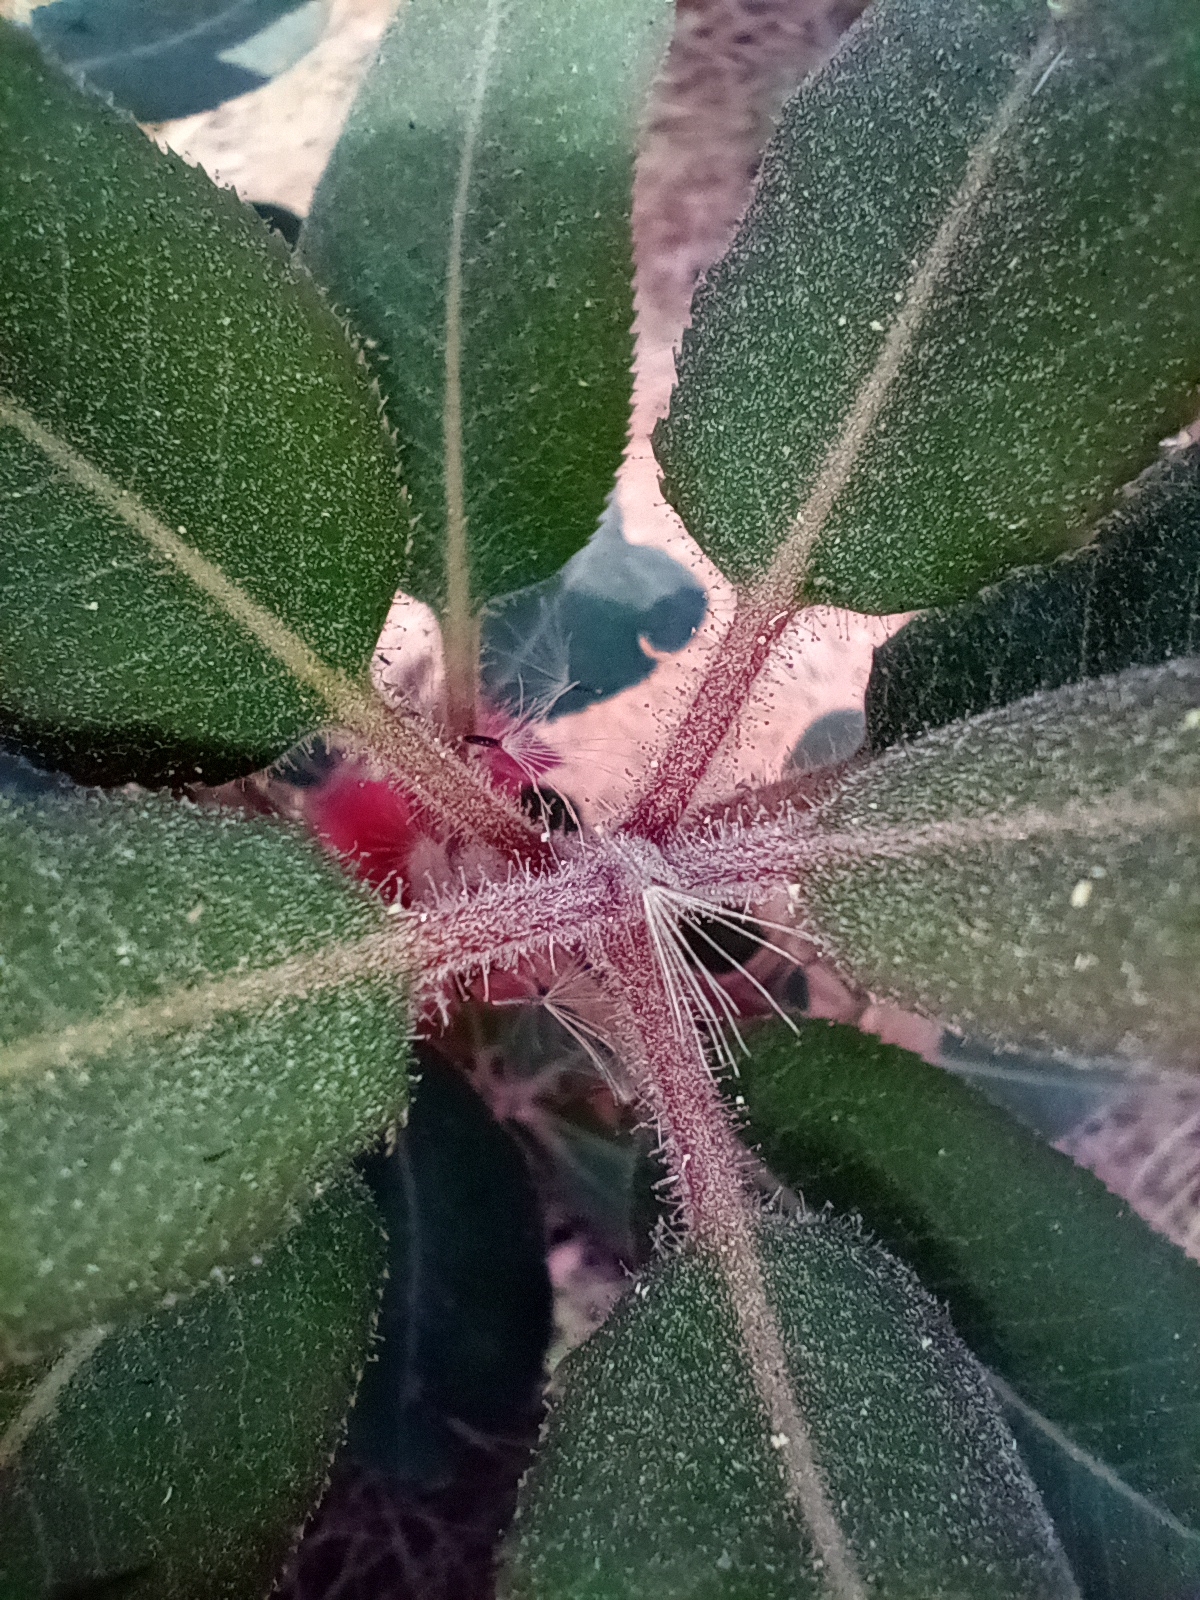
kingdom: Plantae
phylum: Tracheophyta
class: Magnoliopsida
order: Ericales
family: Ericaceae
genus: Arbutus
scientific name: Arbutus xalapensis
